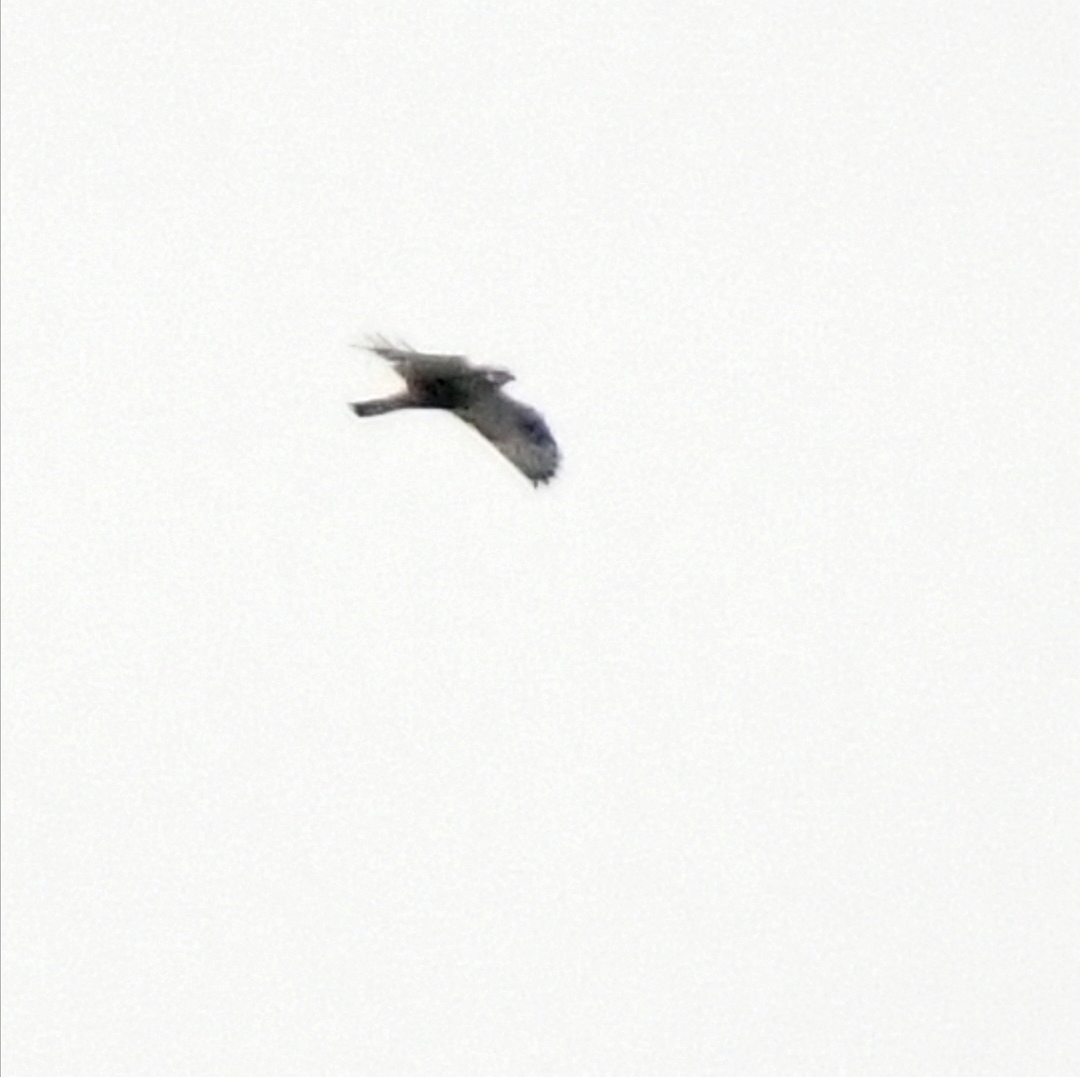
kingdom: Animalia
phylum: Chordata
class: Aves
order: Accipitriformes
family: Accipitridae
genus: Buteo
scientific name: Buteo lagopus
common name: Rough-legged buzzard
